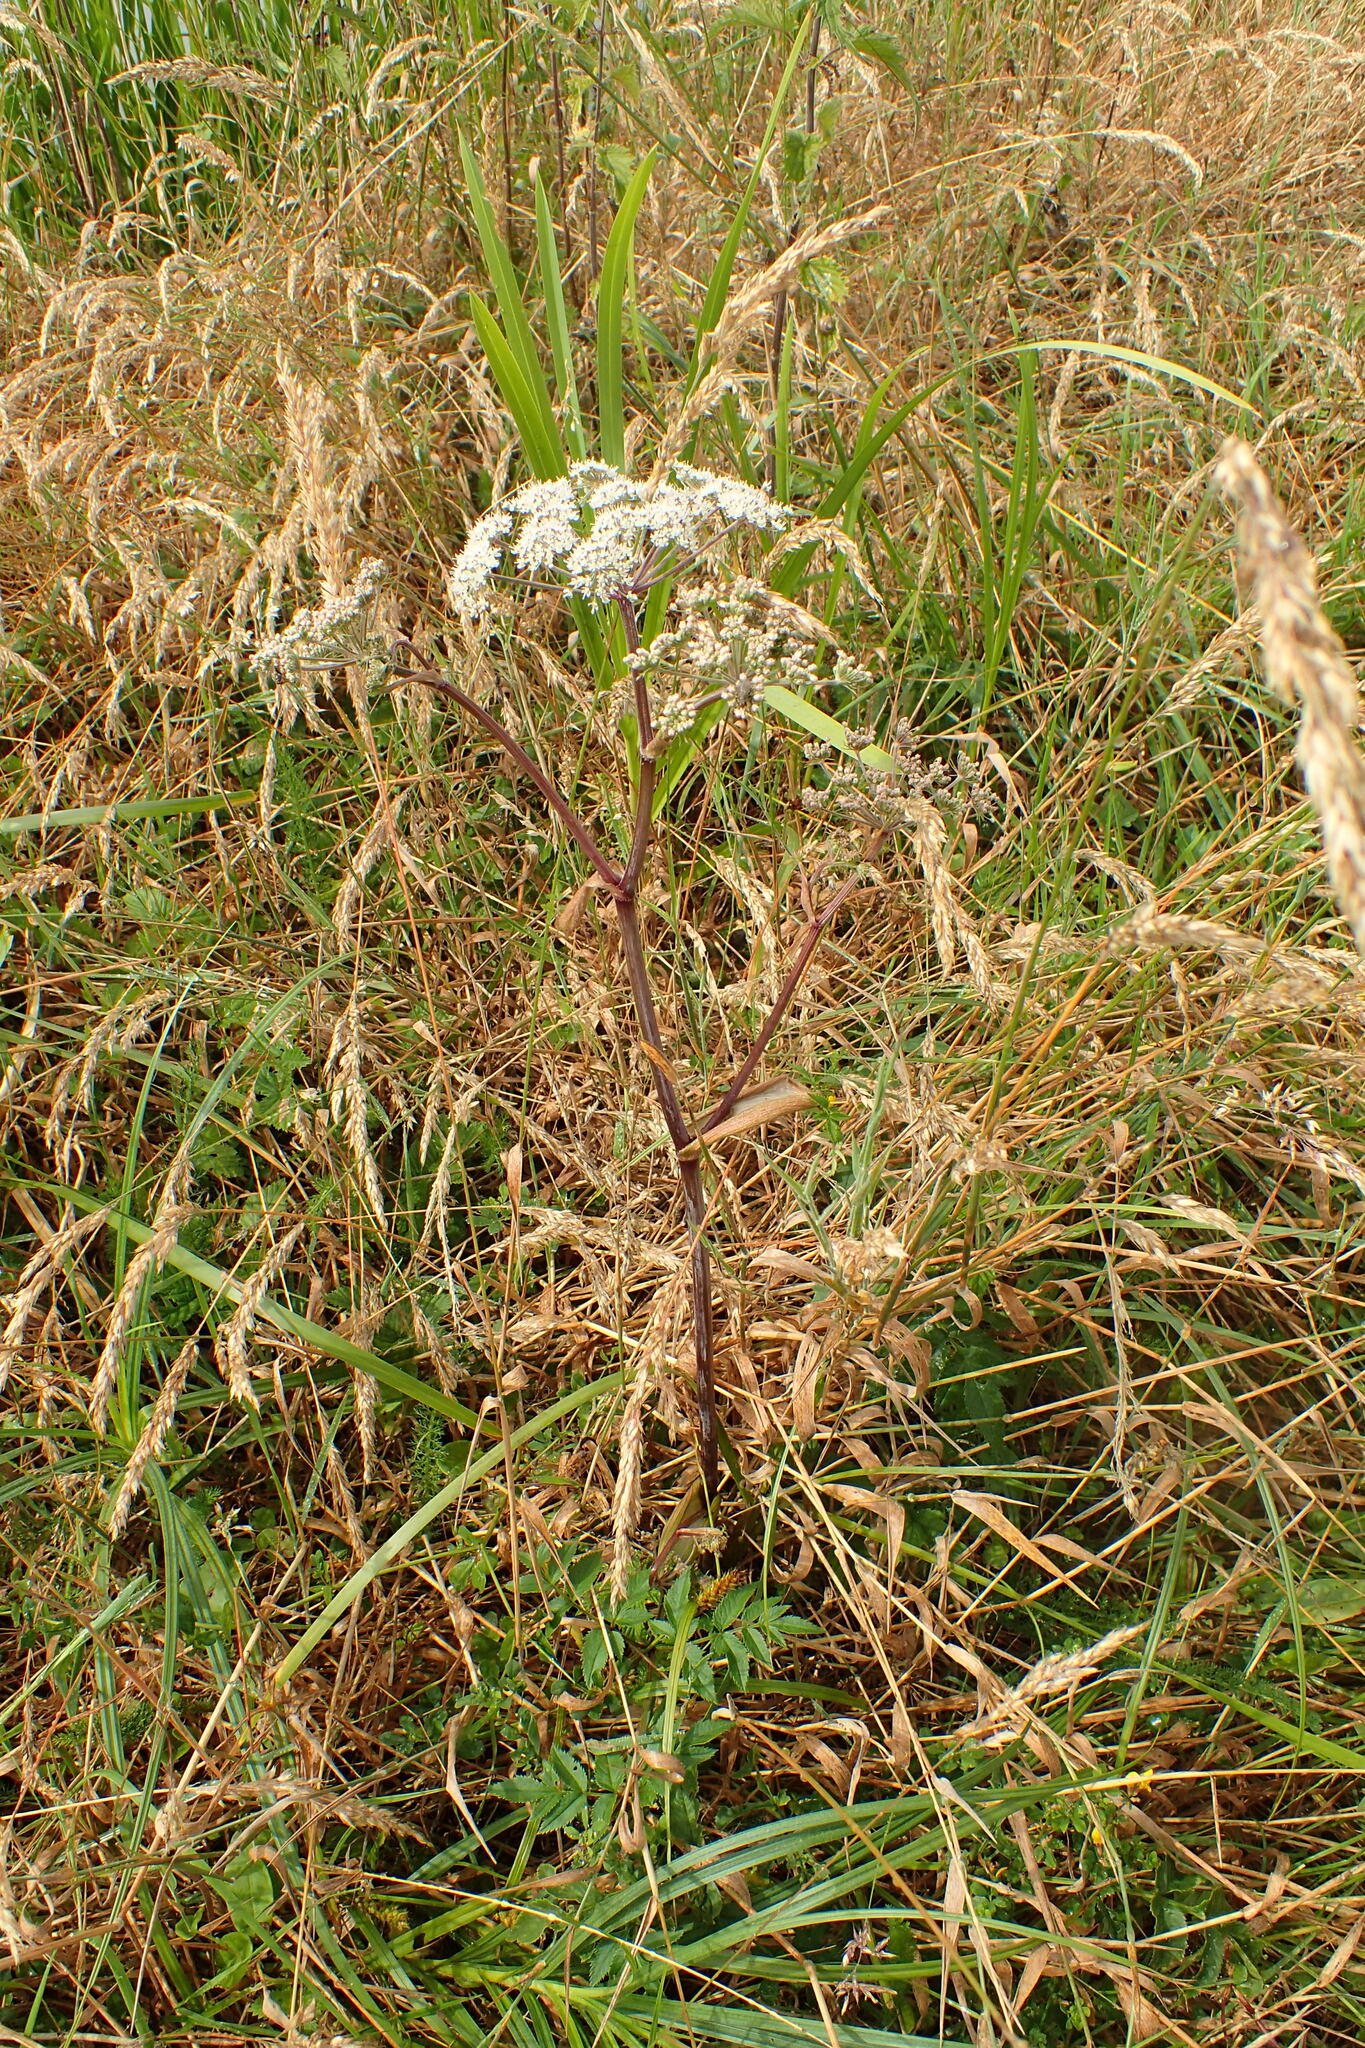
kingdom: Plantae
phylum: Tracheophyta
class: Magnoliopsida
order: Apiales
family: Apiaceae
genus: Angelica
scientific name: Angelica sylvestris
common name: Wild angelica
